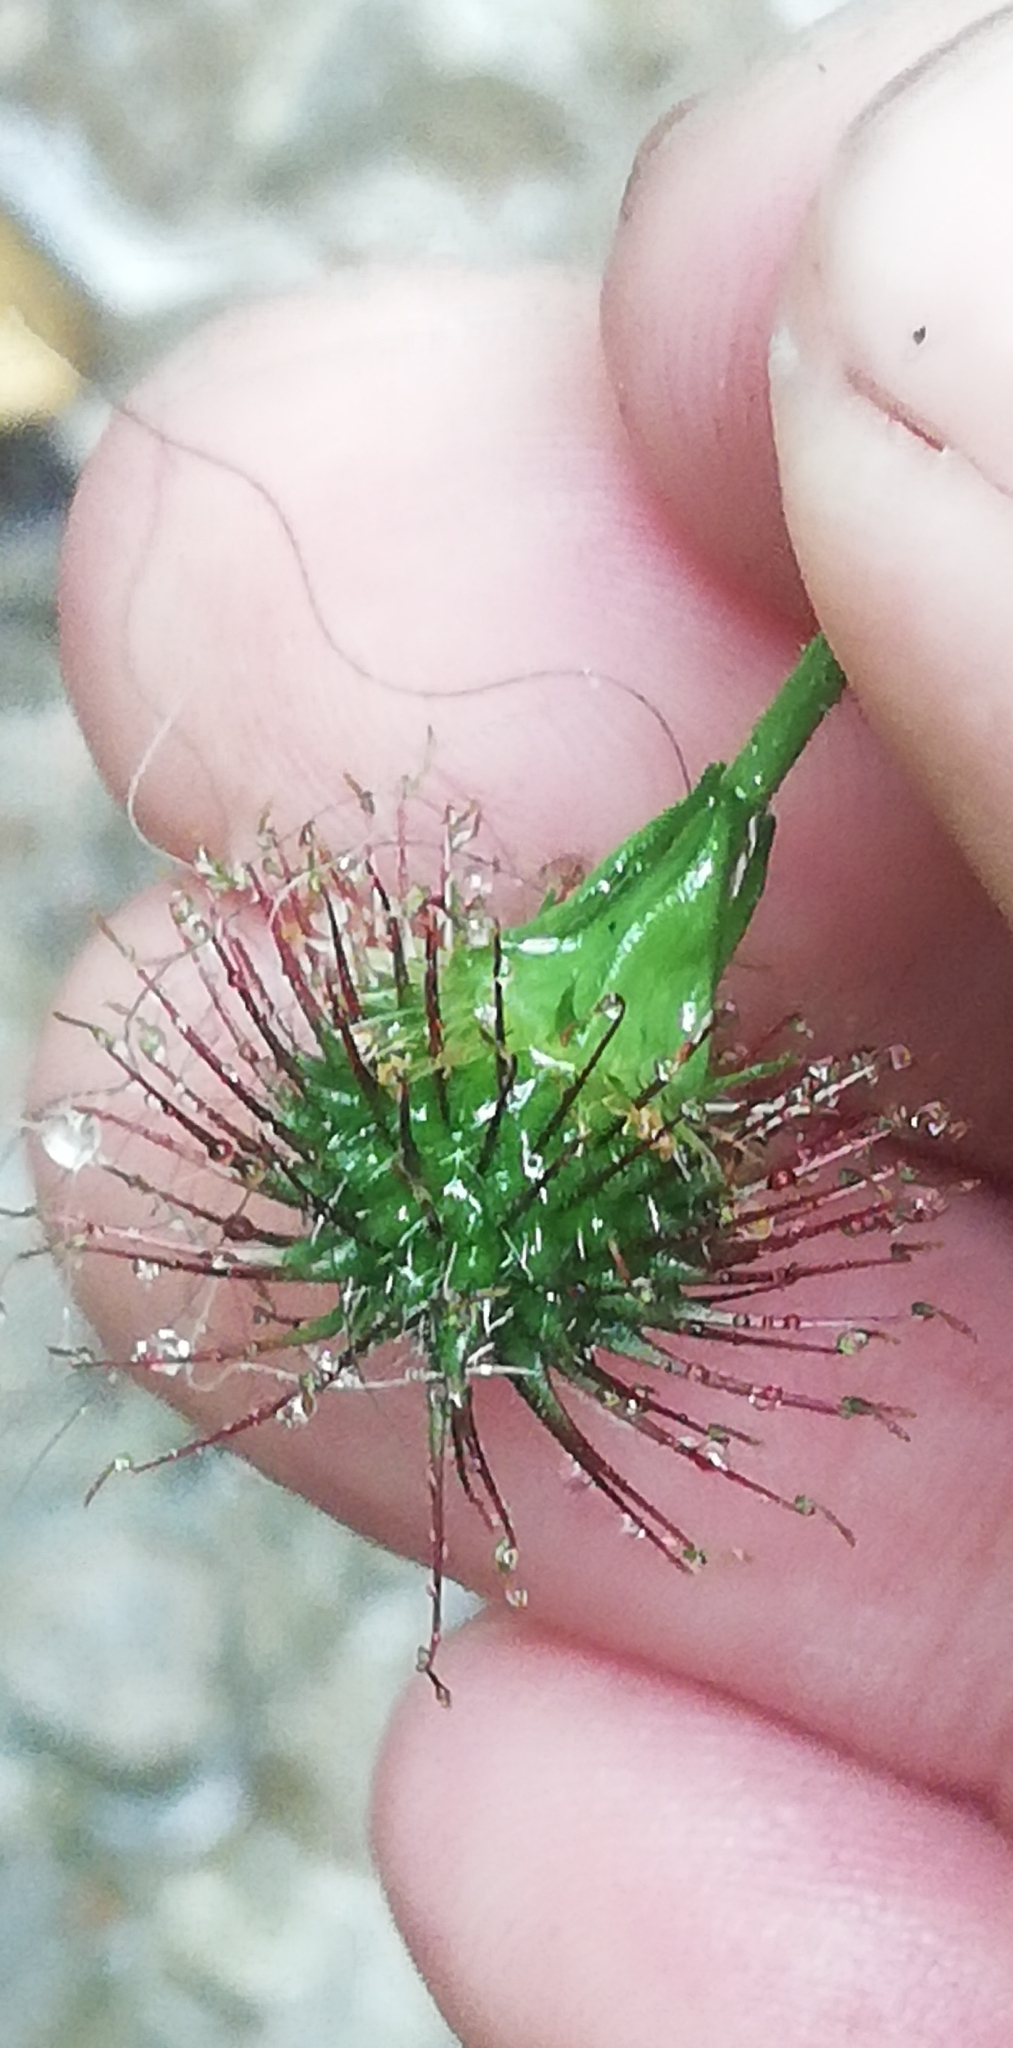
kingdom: Plantae
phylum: Tracheophyta
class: Magnoliopsida
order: Rosales
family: Rosaceae
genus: Geum
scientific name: Geum urbanum
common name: Wood avens
